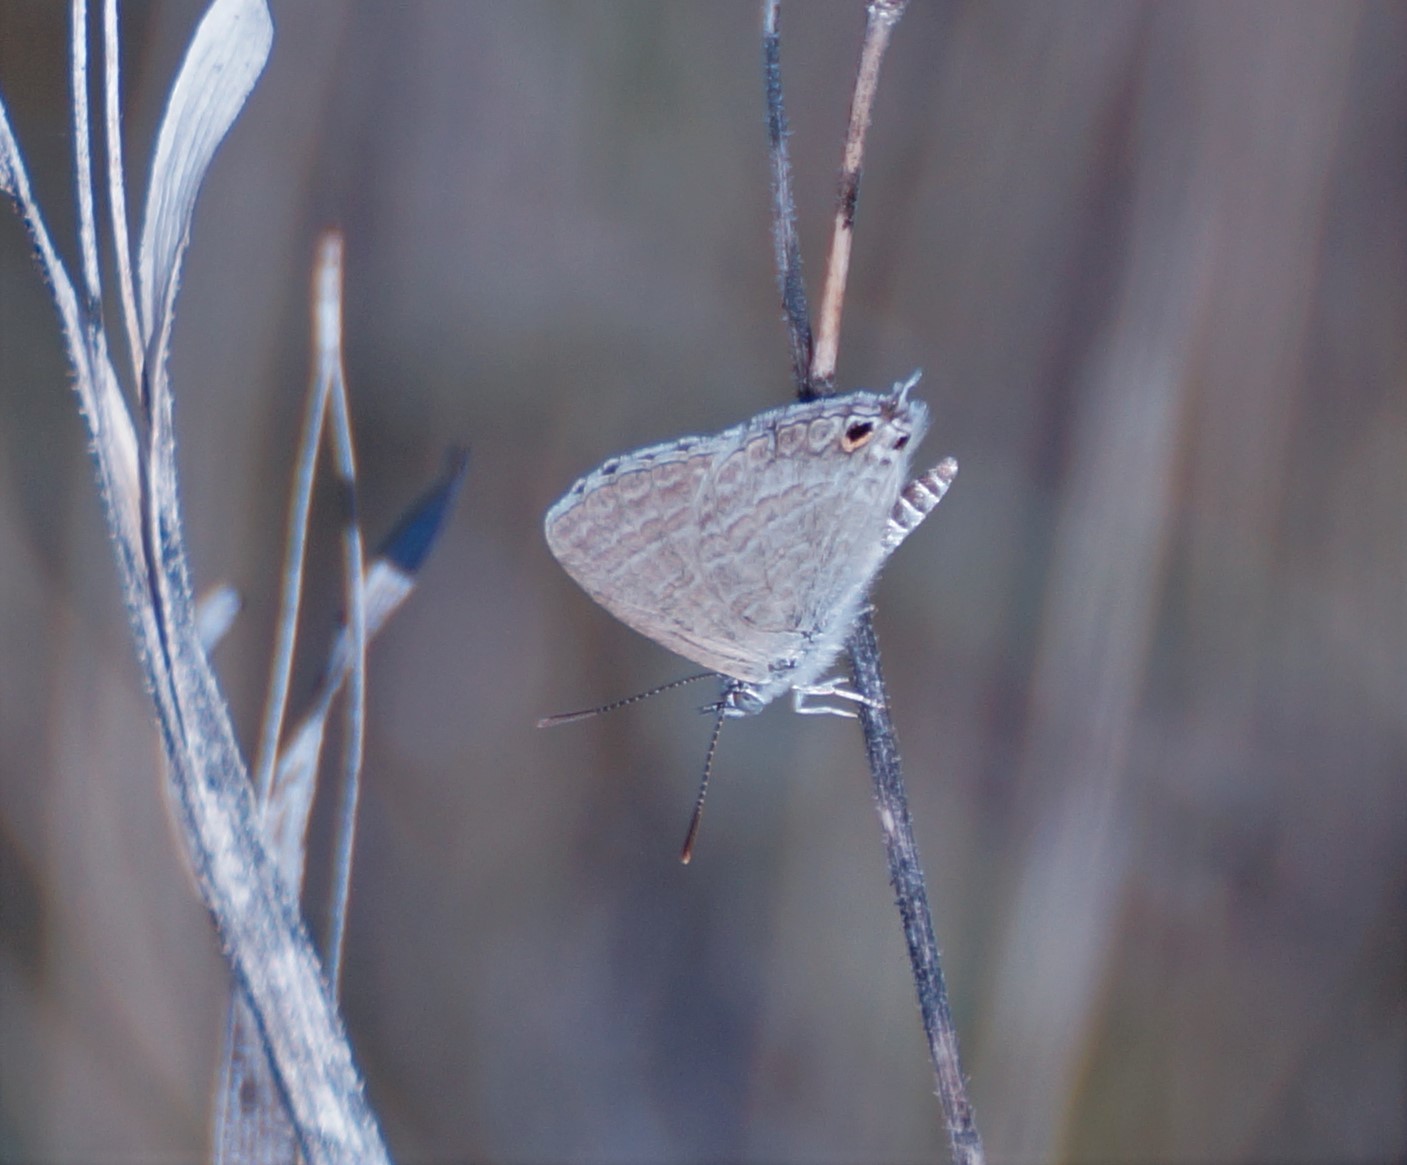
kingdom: Animalia
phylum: Arthropoda
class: Insecta
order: Lepidoptera
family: Lycaenidae
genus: Theclinesthes
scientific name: Theclinesthes miskini
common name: Wattle blue
